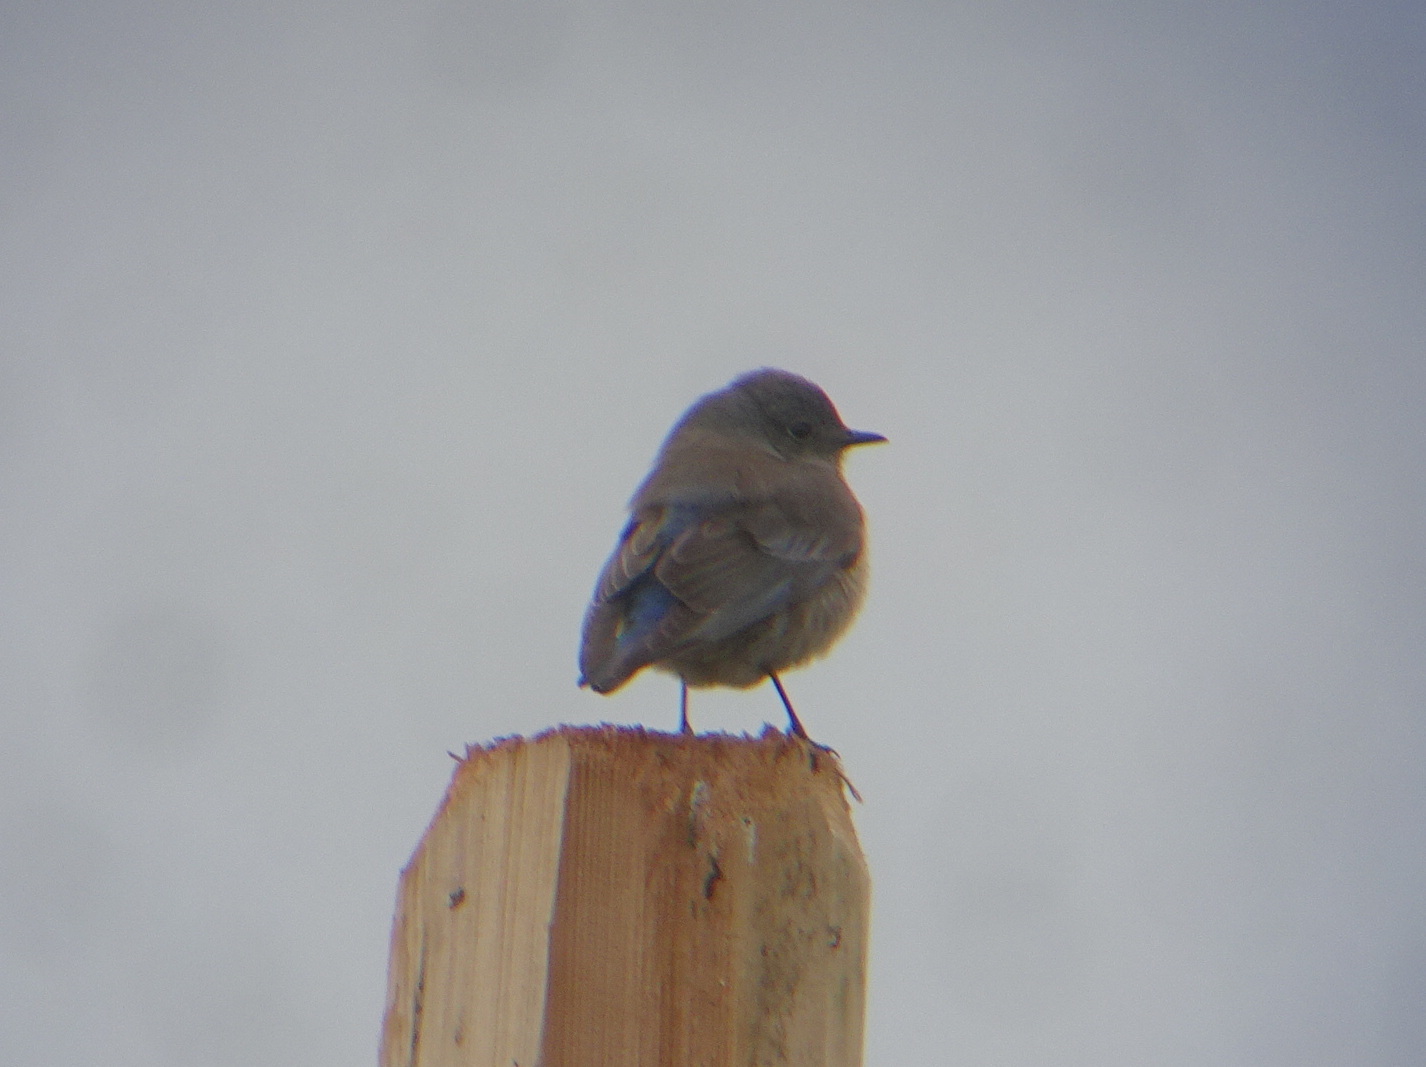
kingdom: Animalia
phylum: Chordata
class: Aves
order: Passeriformes
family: Turdidae
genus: Sialia
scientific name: Sialia mexicana
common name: Western bluebird
